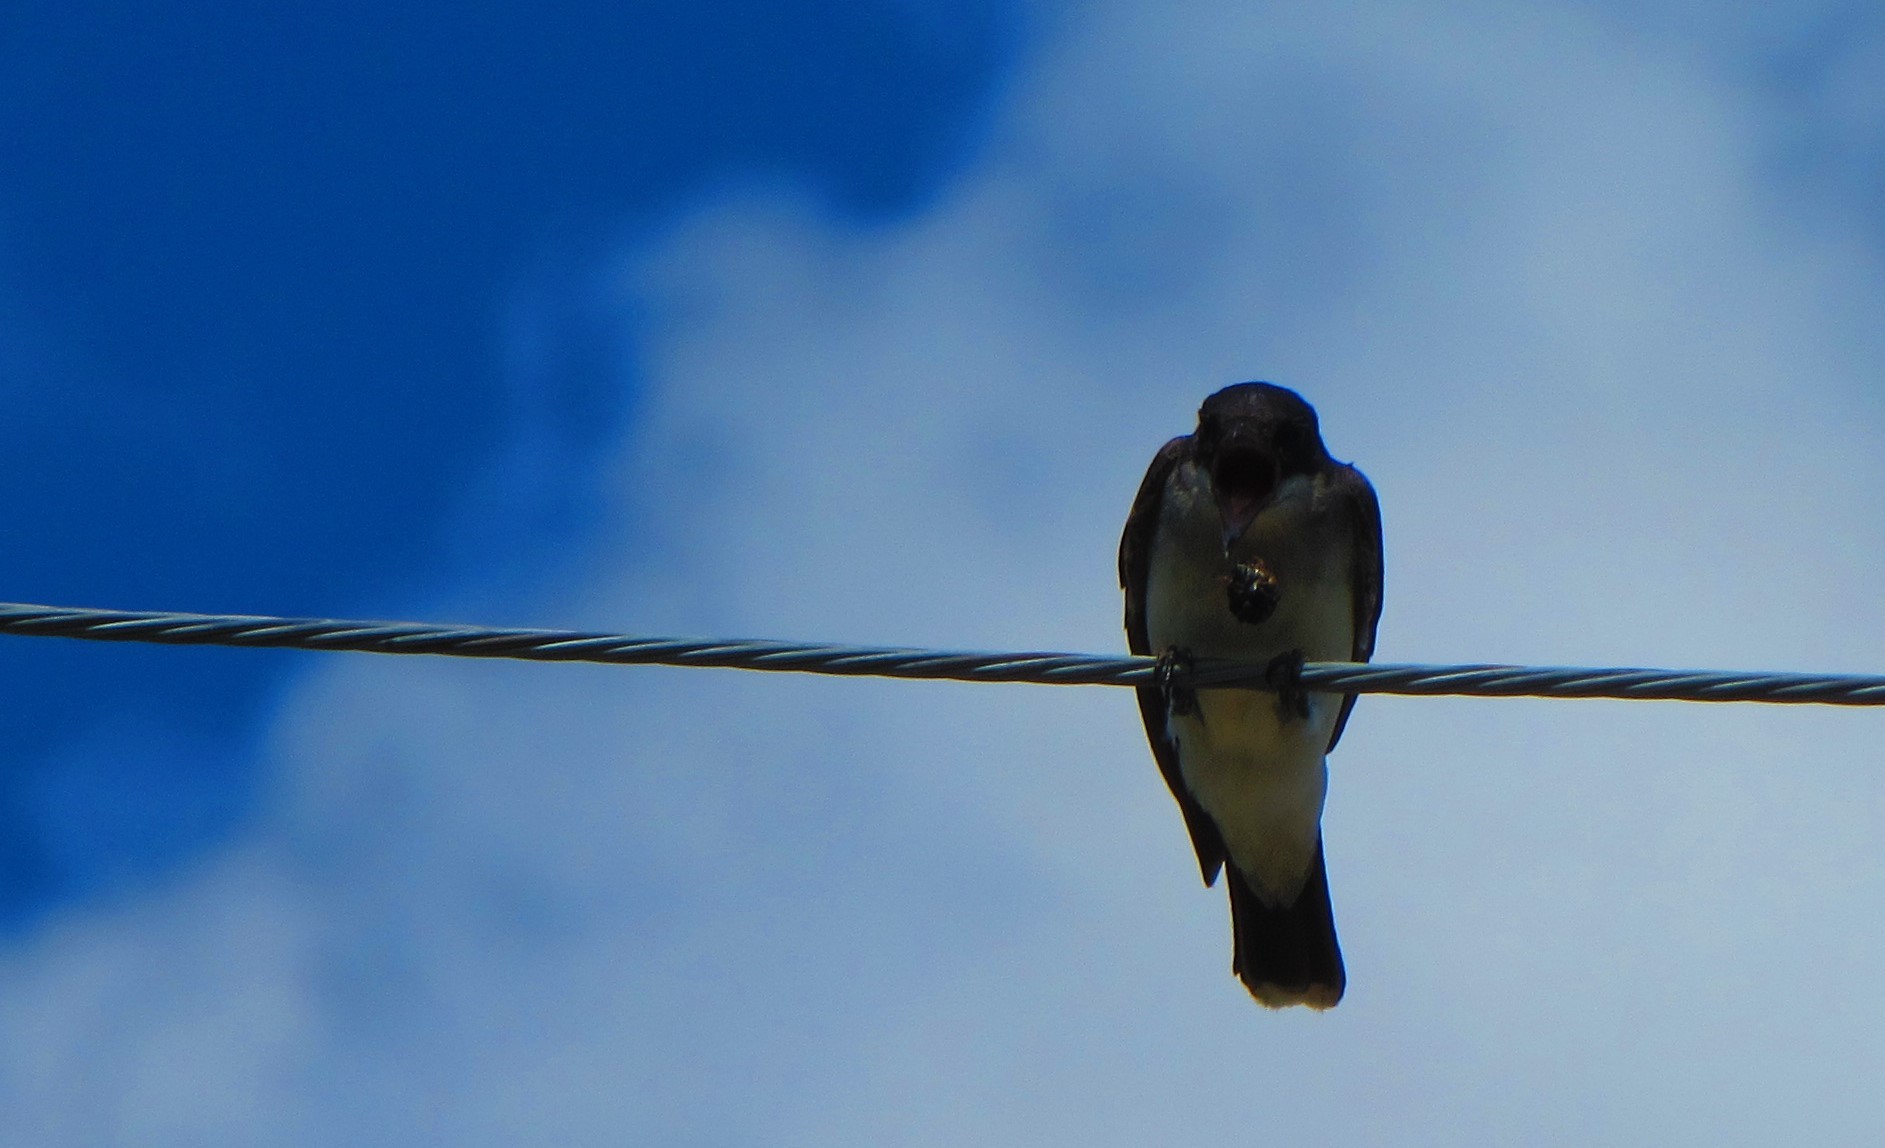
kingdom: Animalia
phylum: Chordata
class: Aves
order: Passeriformes
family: Tyrannidae
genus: Tyrannus
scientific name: Tyrannus tyrannus
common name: Eastern kingbird
